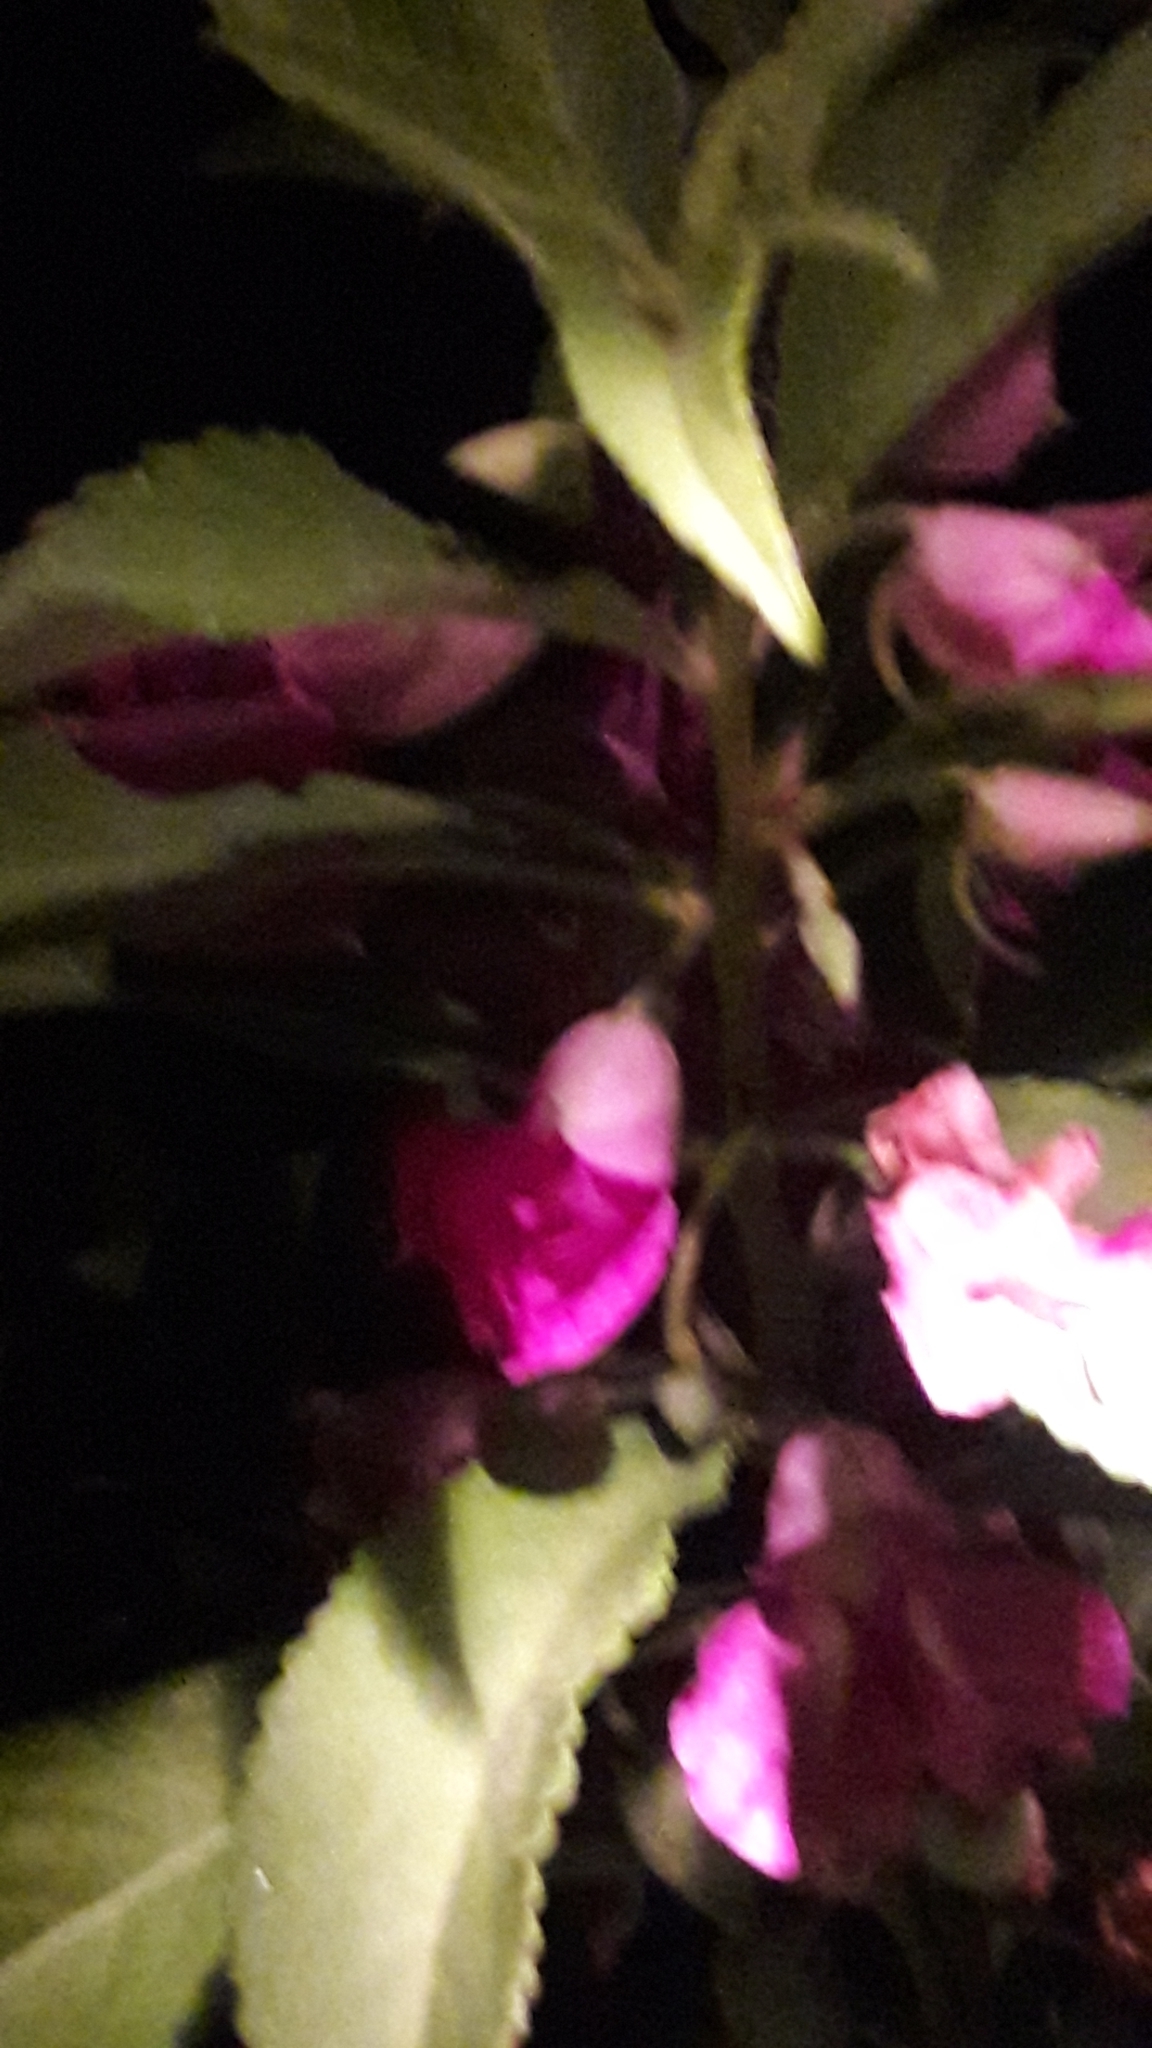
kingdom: Plantae
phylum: Tracheophyta
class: Magnoliopsida
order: Ericales
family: Balsaminaceae
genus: Impatiens
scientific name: Impatiens balsamina
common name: Balsam
